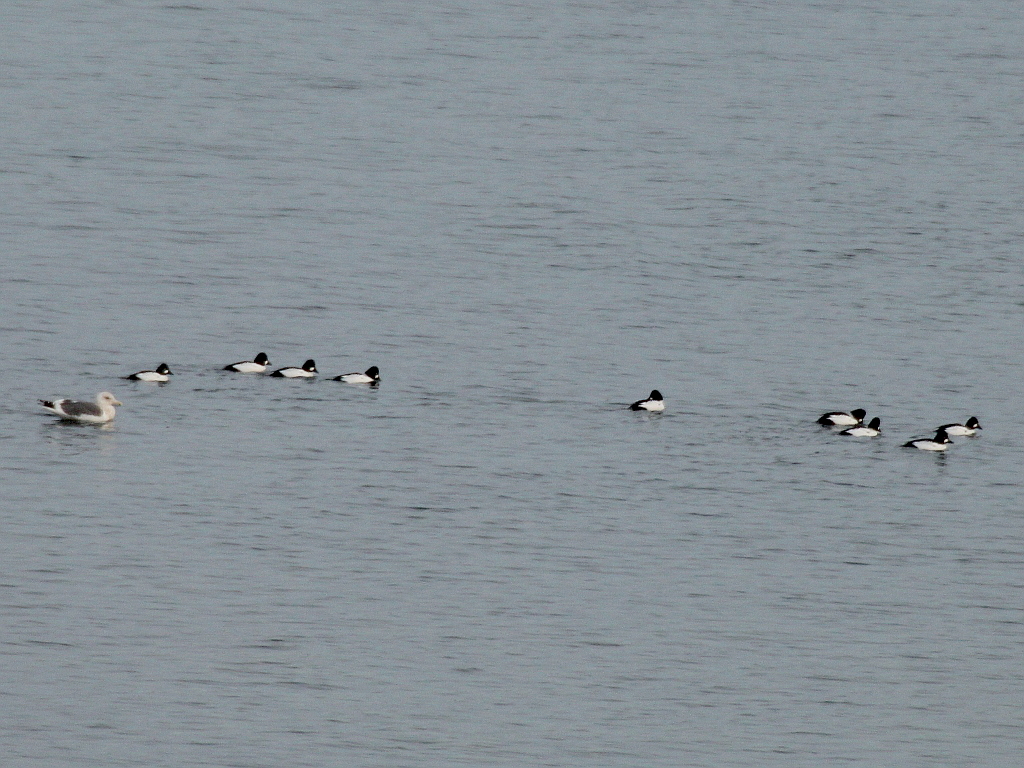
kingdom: Animalia
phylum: Chordata
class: Aves
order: Anseriformes
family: Anatidae
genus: Bucephala
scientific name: Bucephala clangula
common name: Common goldeneye
